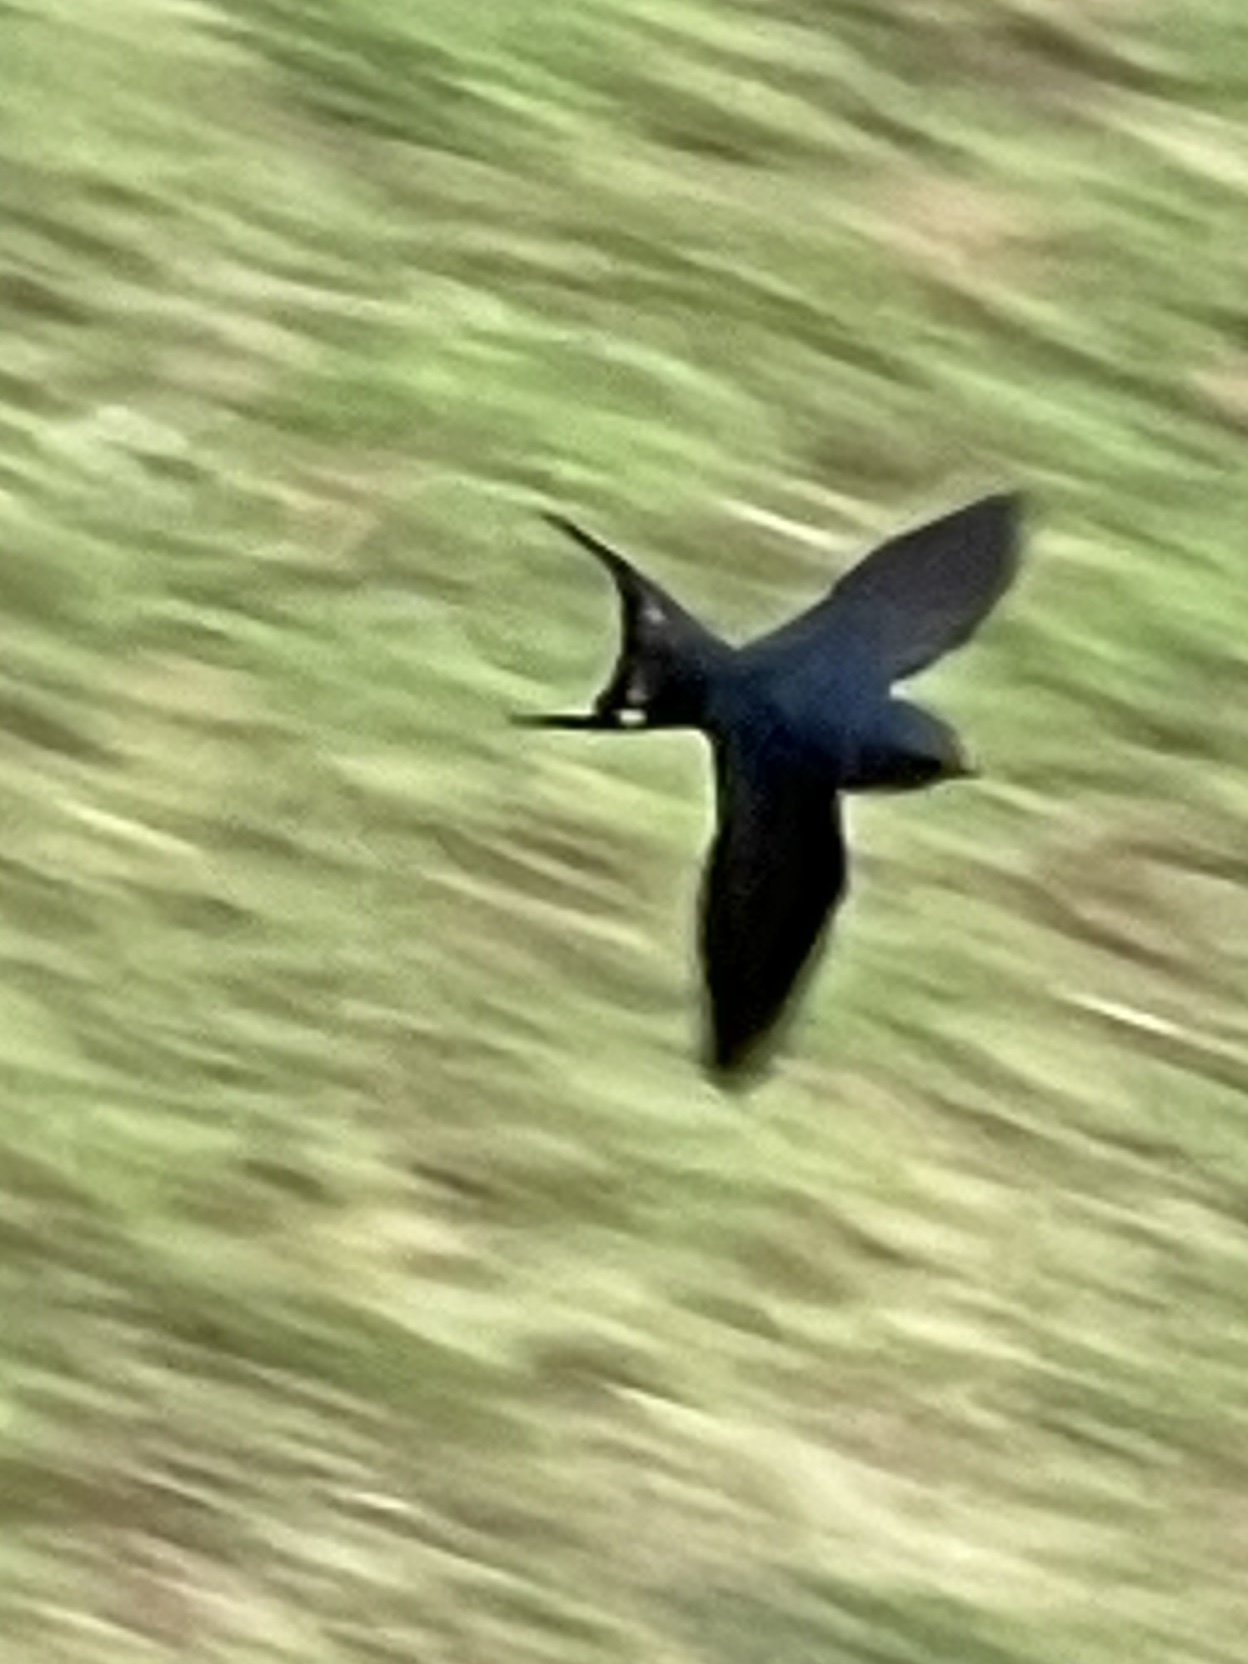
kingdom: Animalia
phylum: Chordata
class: Aves
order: Passeriformes
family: Hirundinidae
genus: Hirundo
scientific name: Hirundo rustica
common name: Barn swallow
